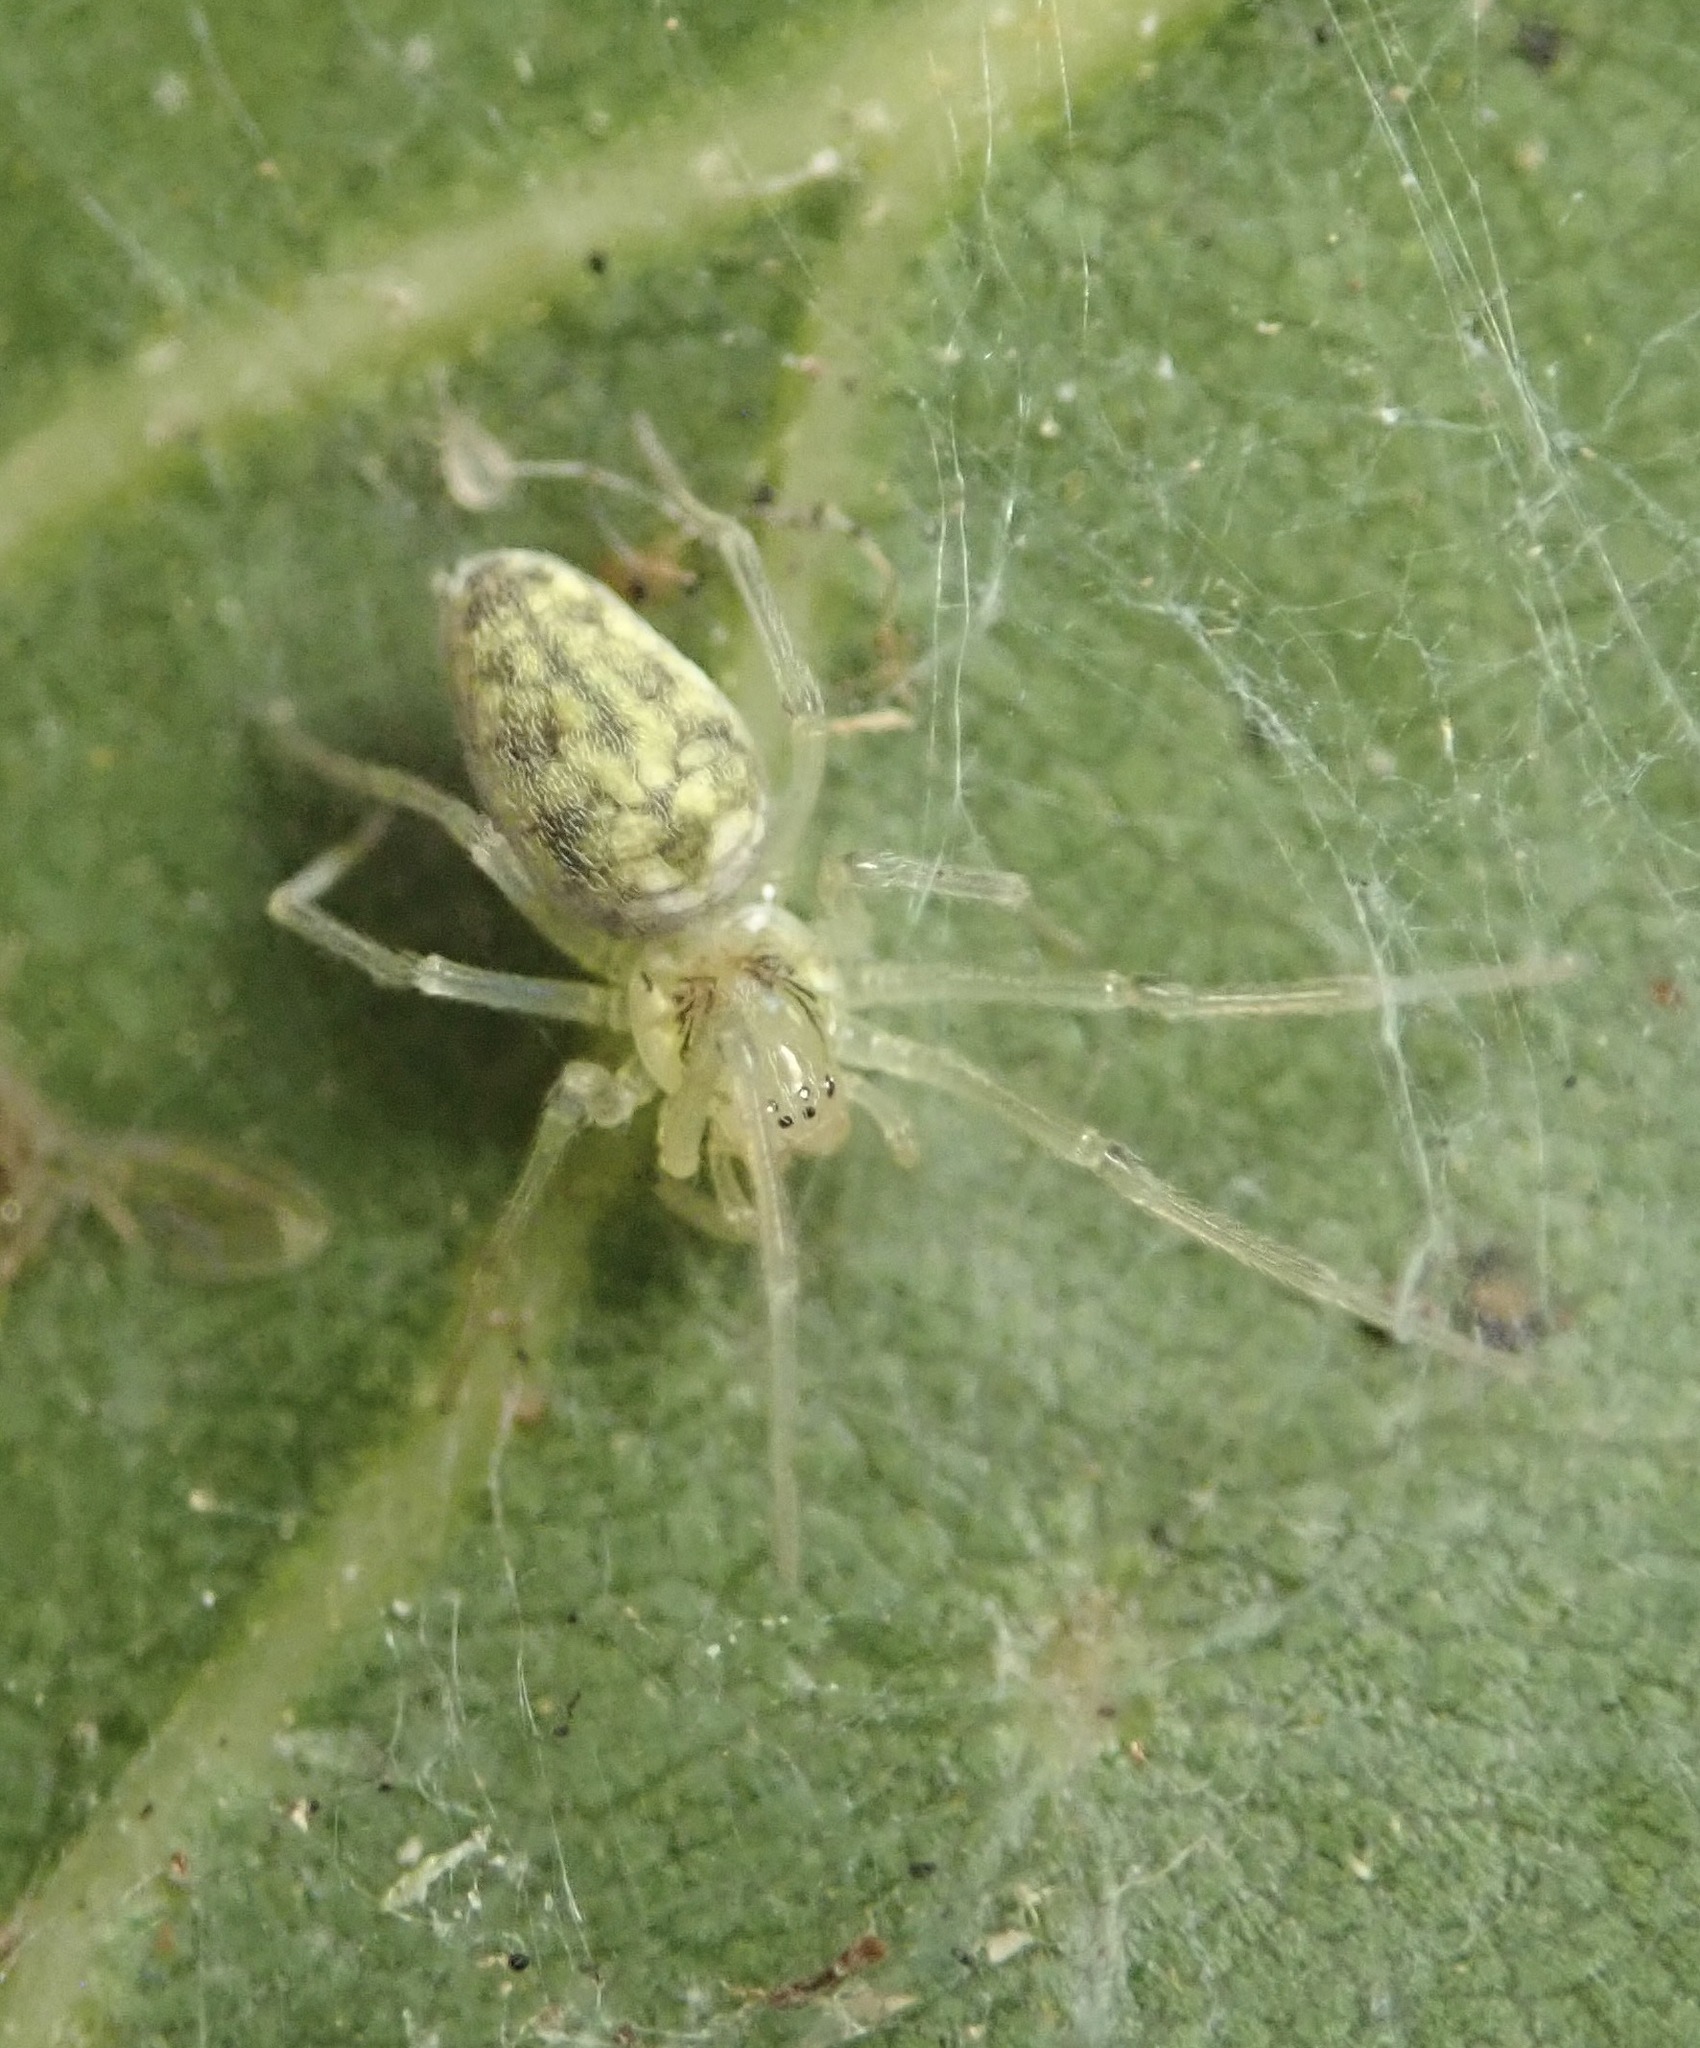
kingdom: Animalia
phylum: Arthropoda
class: Arachnida
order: Araneae
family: Dictynidae
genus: Nigma
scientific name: Nigma linsdalei
